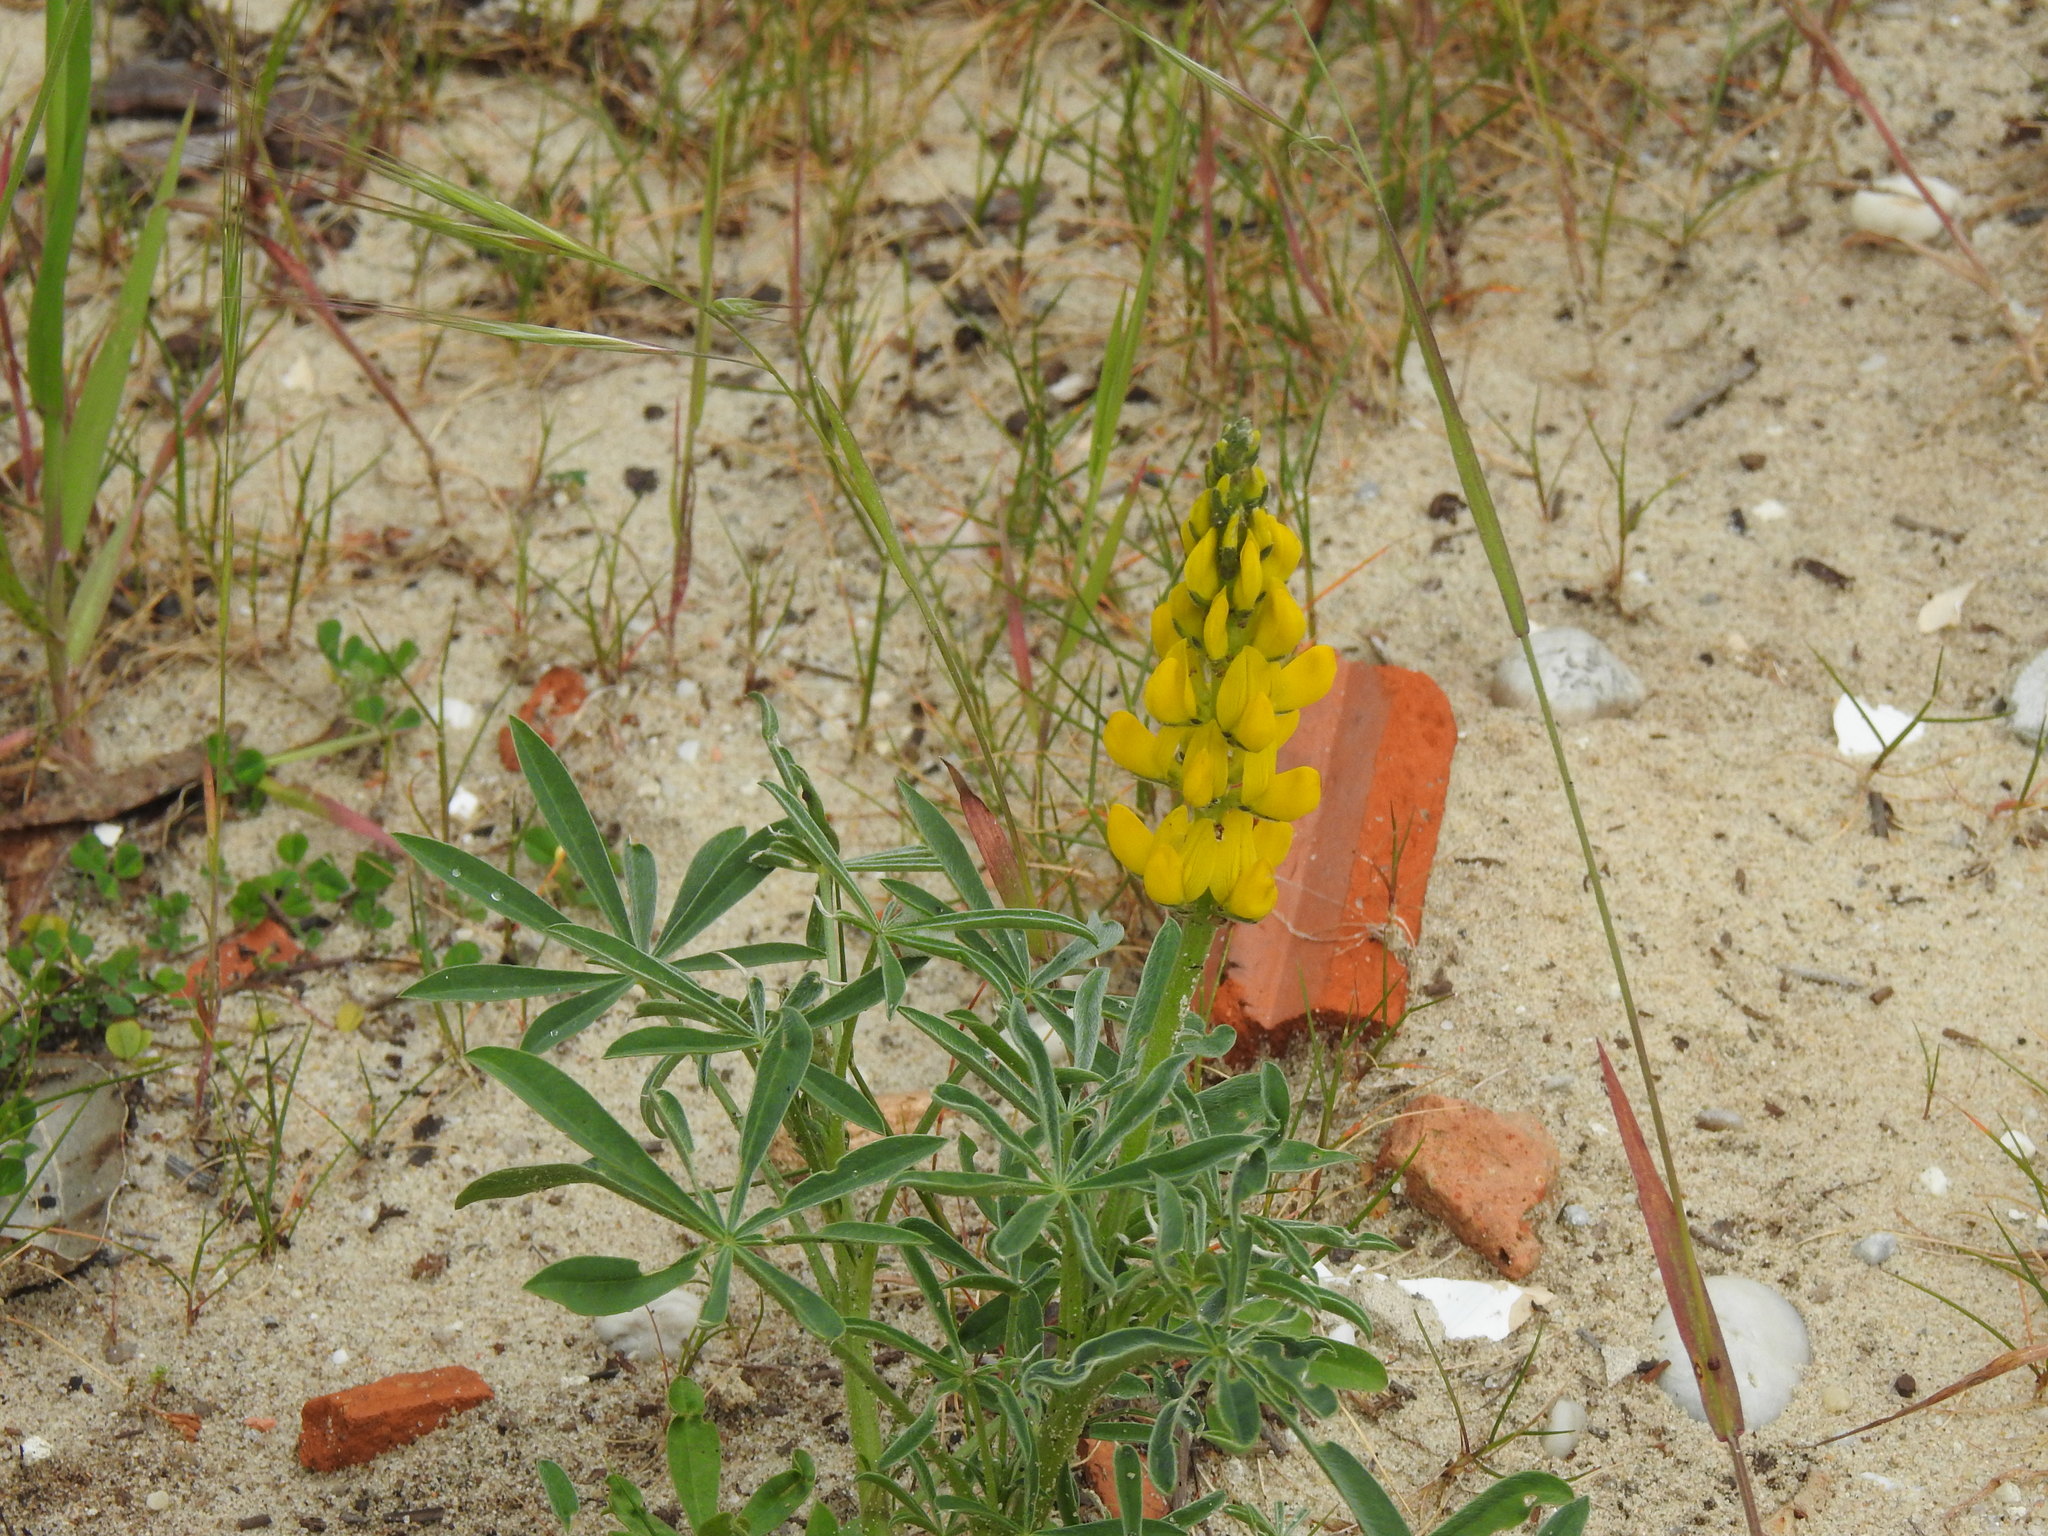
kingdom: Plantae
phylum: Tracheophyta
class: Magnoliopsida
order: Fabales
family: Fabaceae
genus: Lupinus
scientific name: Lupinus luteus
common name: European yellow lupine
